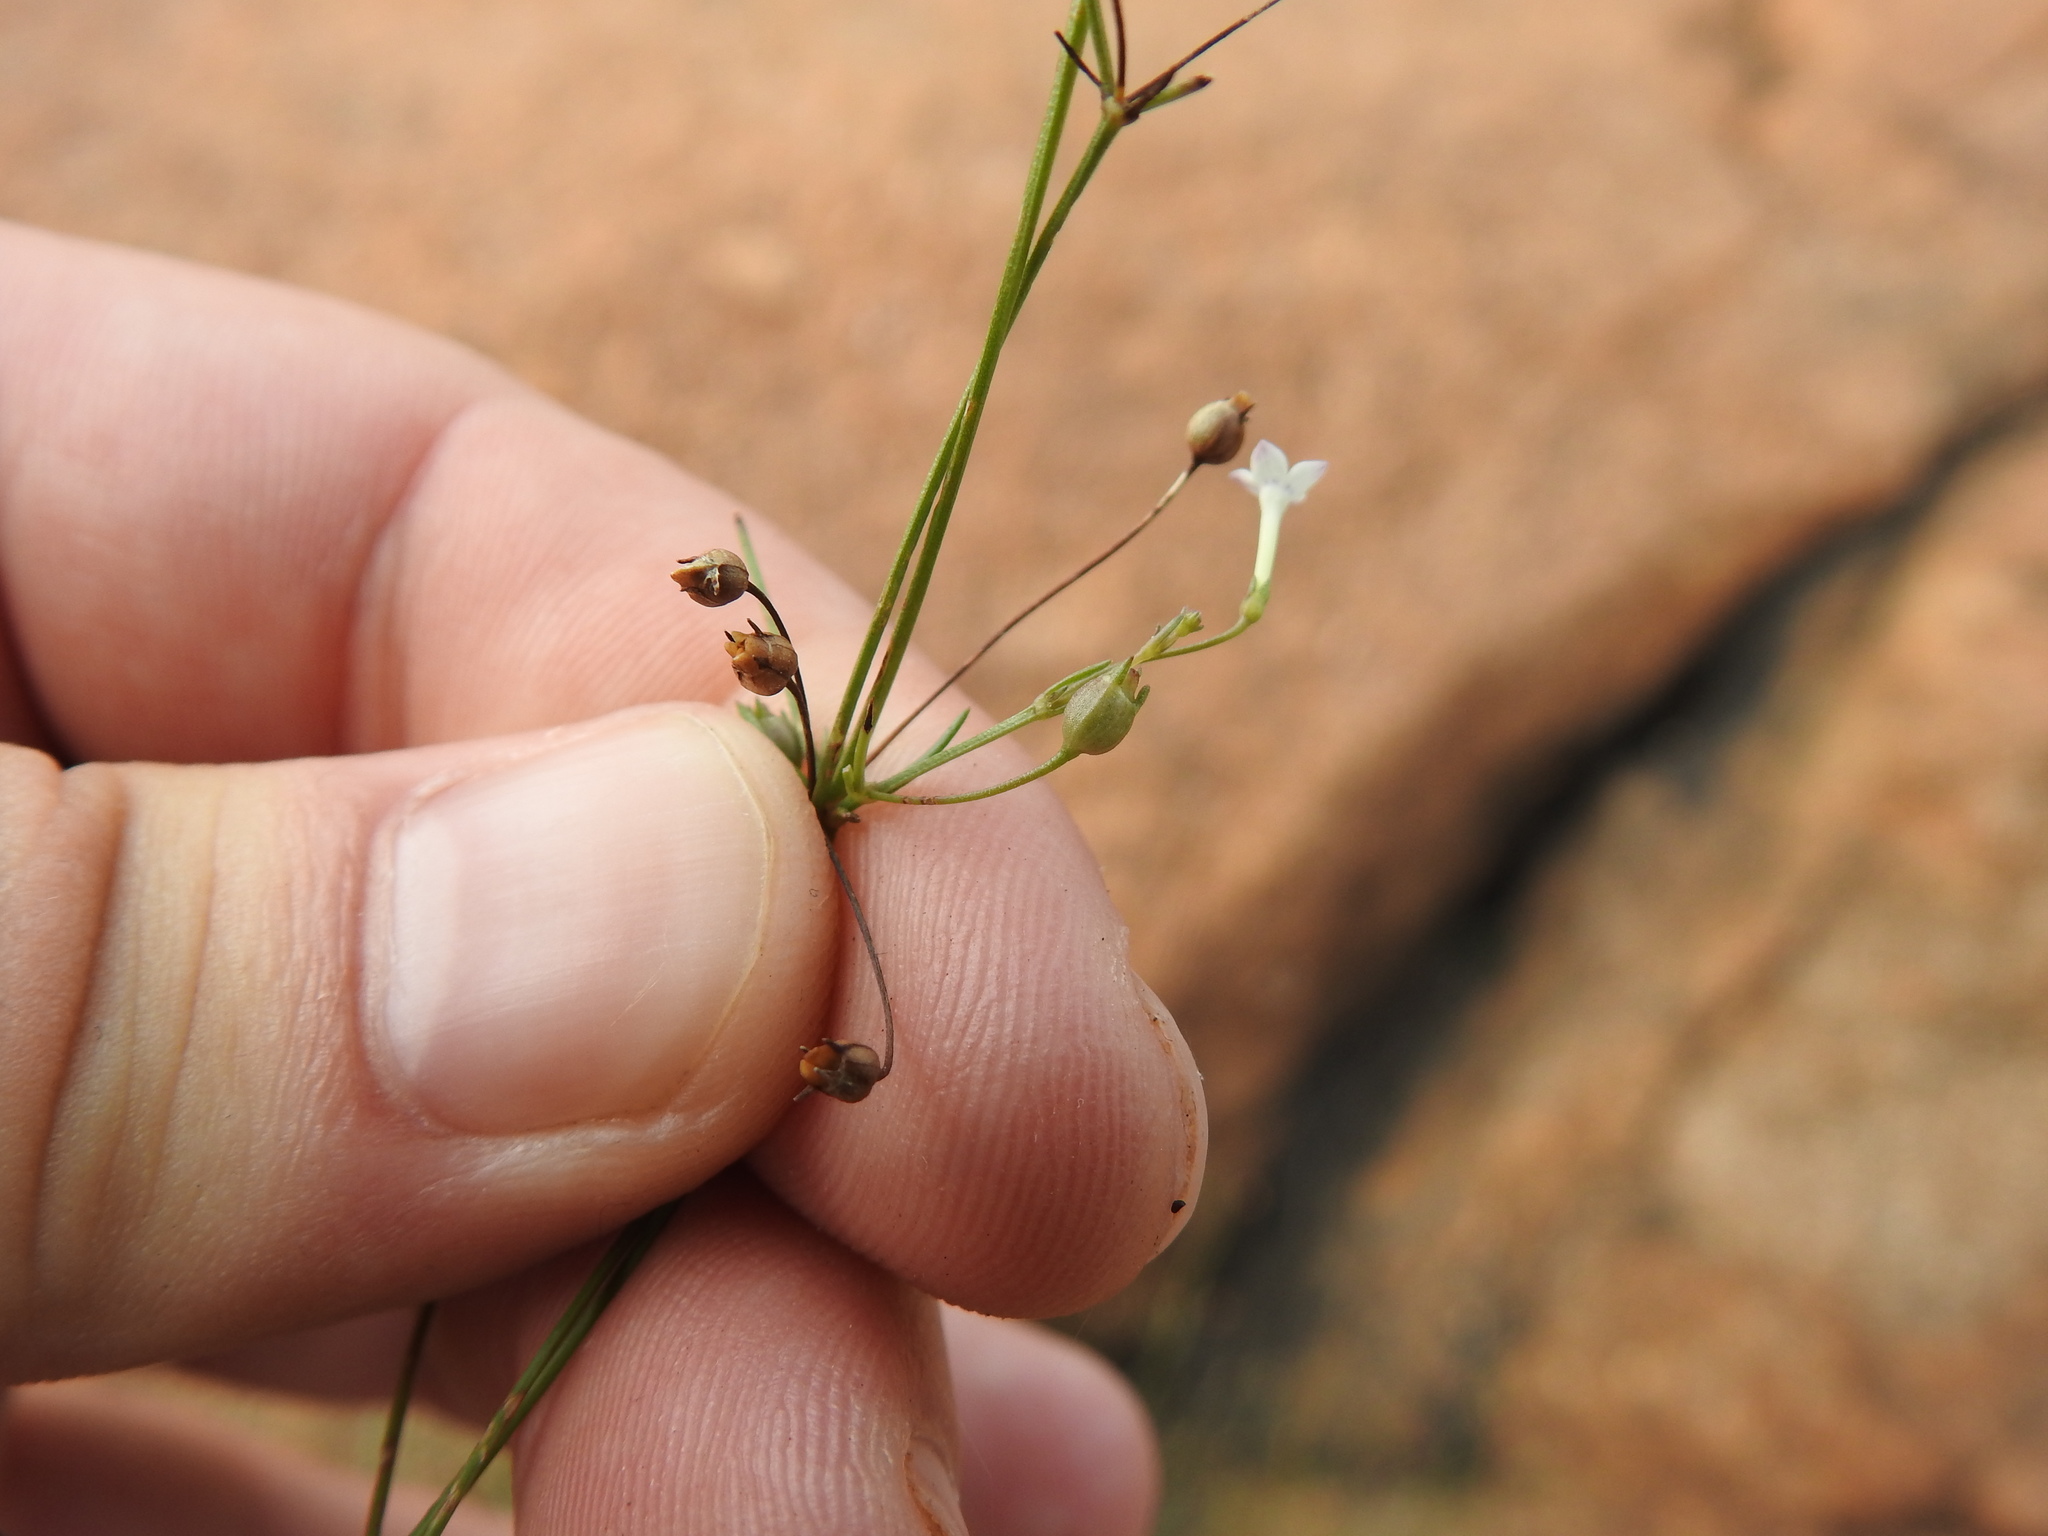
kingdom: Plantae
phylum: Tracheophyta
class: Magnoliopsida
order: Gentianales
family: Rubiaceae
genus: Oldenlandia
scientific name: Oldenlandia herbacea
